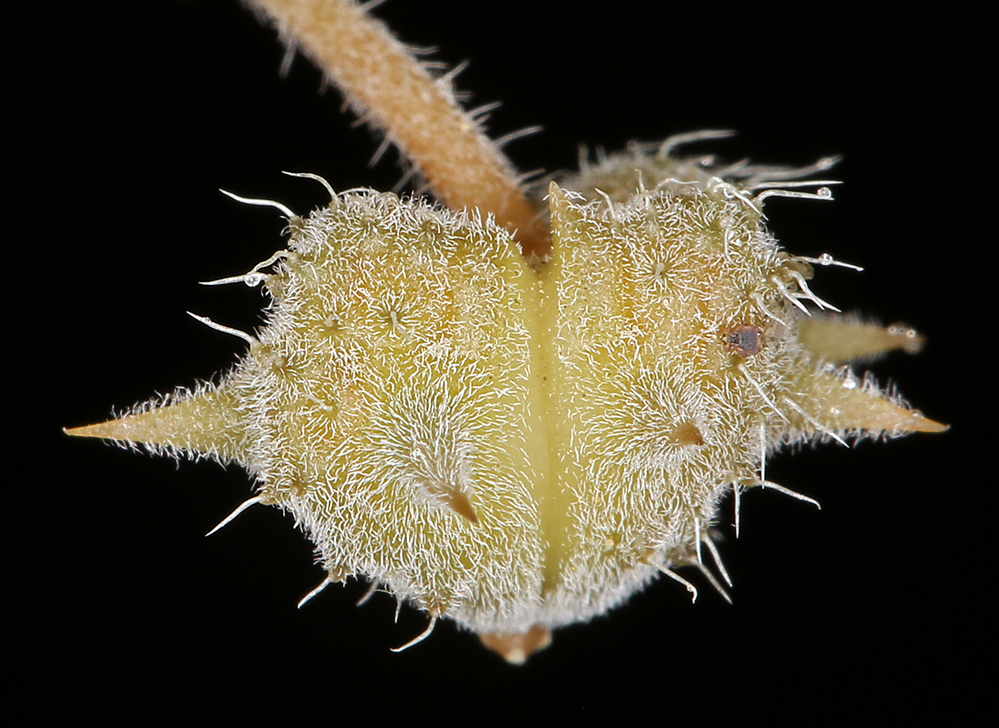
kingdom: Plantae
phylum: Tracheophyta
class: Magnoliopsida
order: Zygophyllales
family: Zygophyllaceae
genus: Tribulus
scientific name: Tribulus terrestris
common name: Puncturevine
